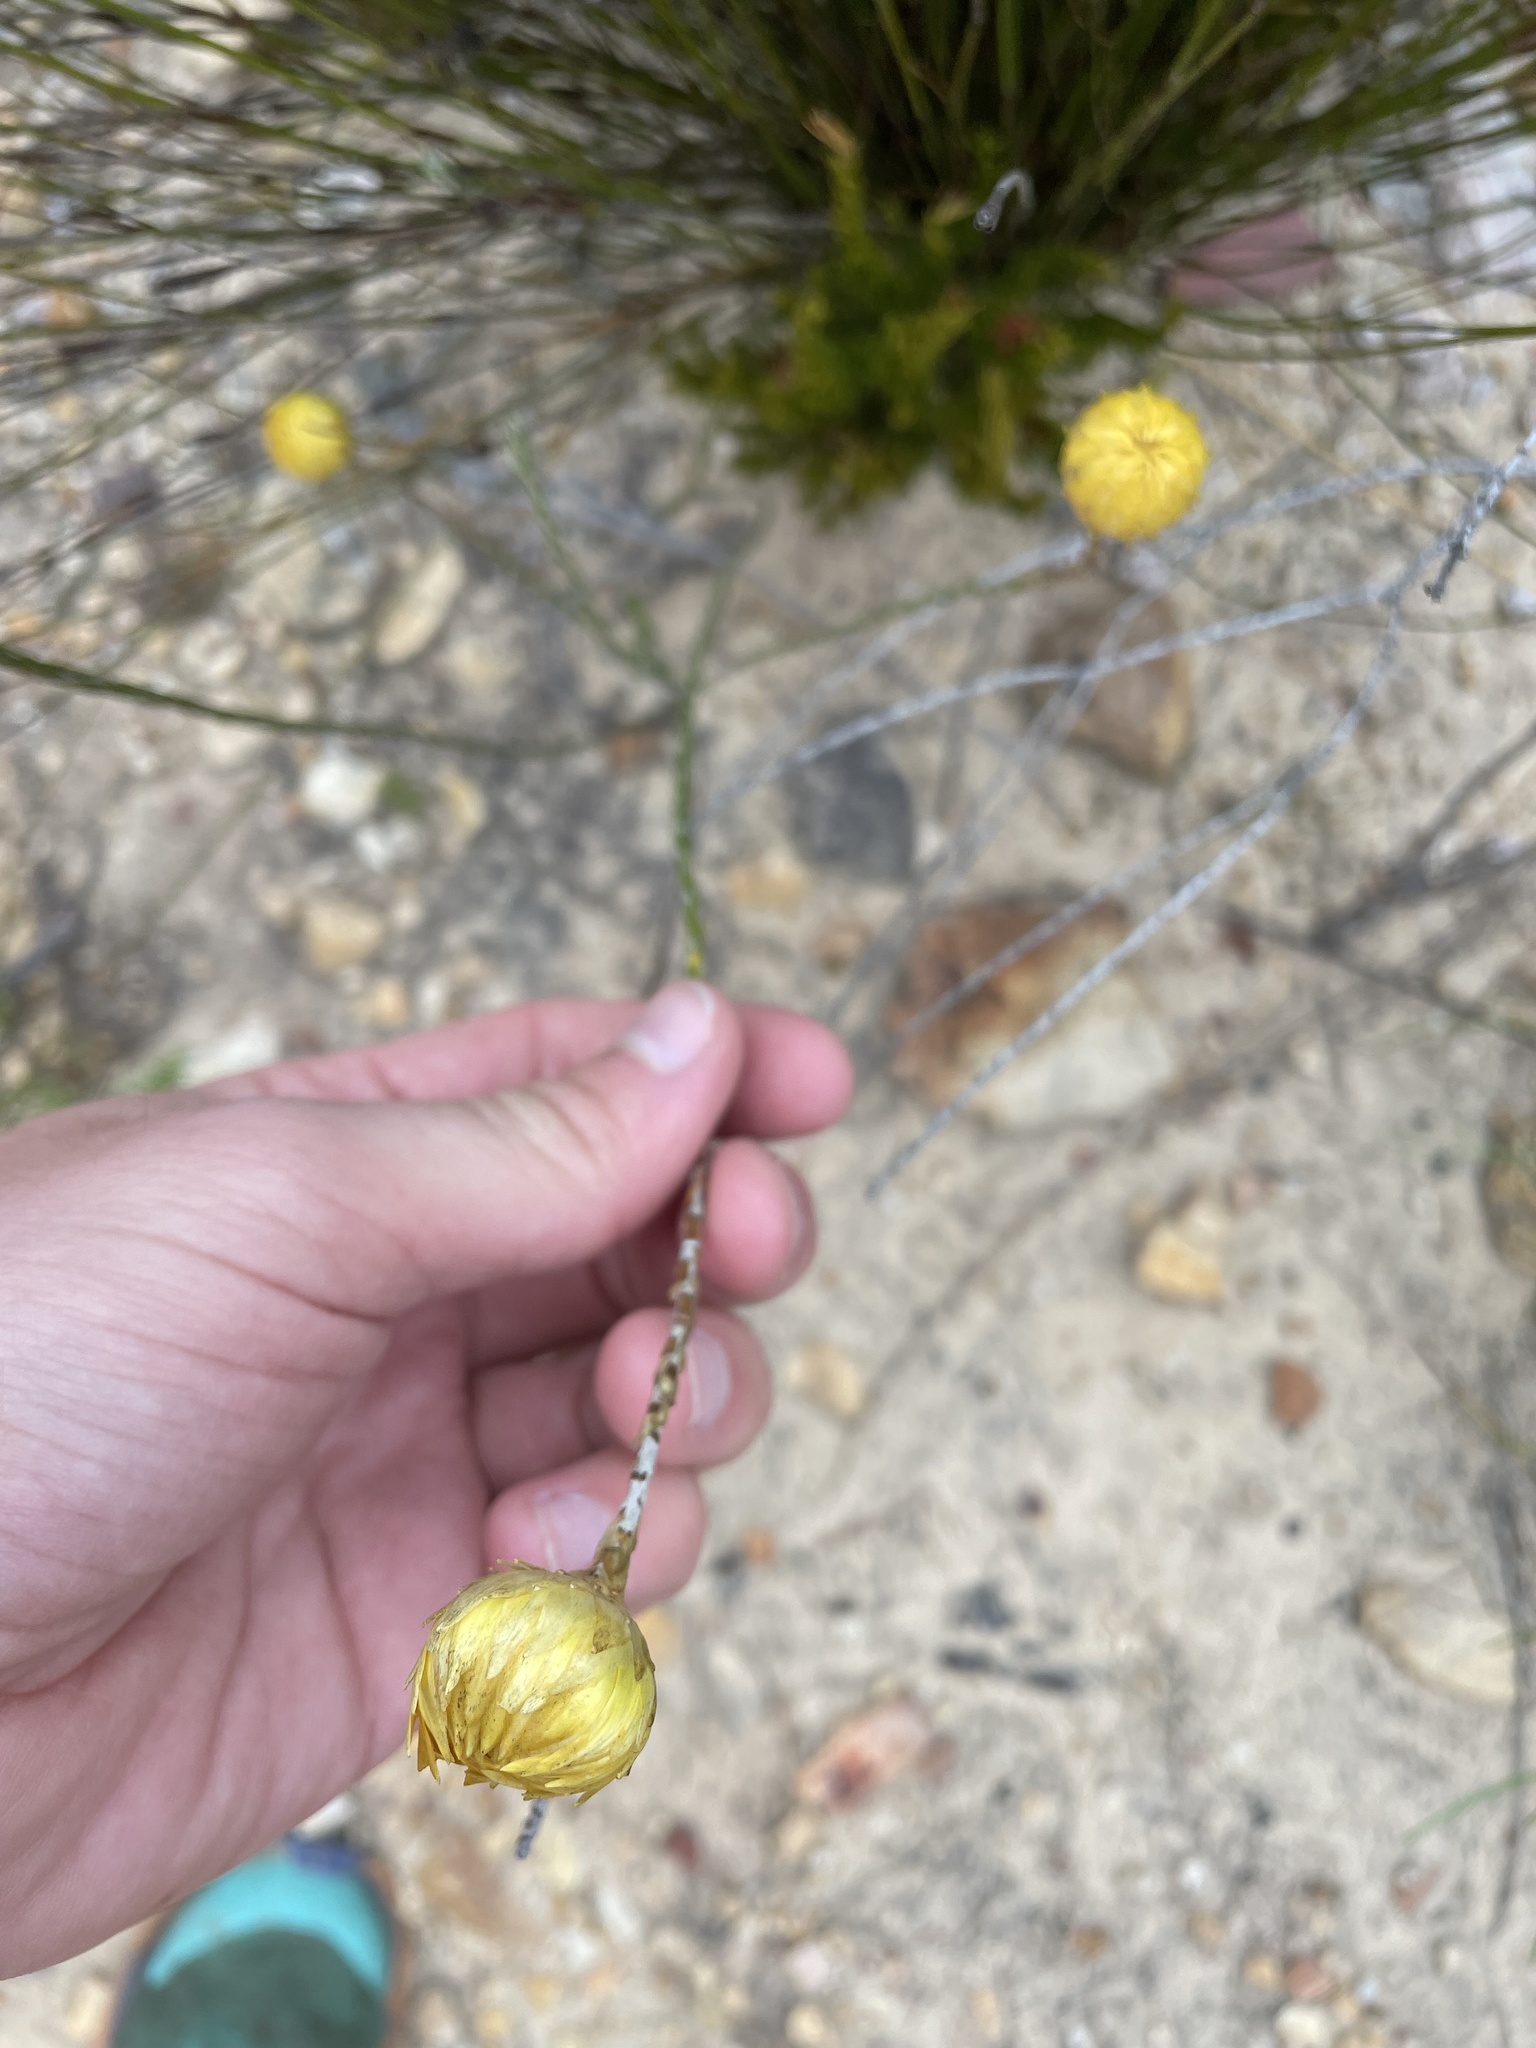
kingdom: Plantae
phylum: Tracheophyta
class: Magnoliopsida
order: Asterales
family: Asteraceae
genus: Edmondia
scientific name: Edmondia fasciculata
